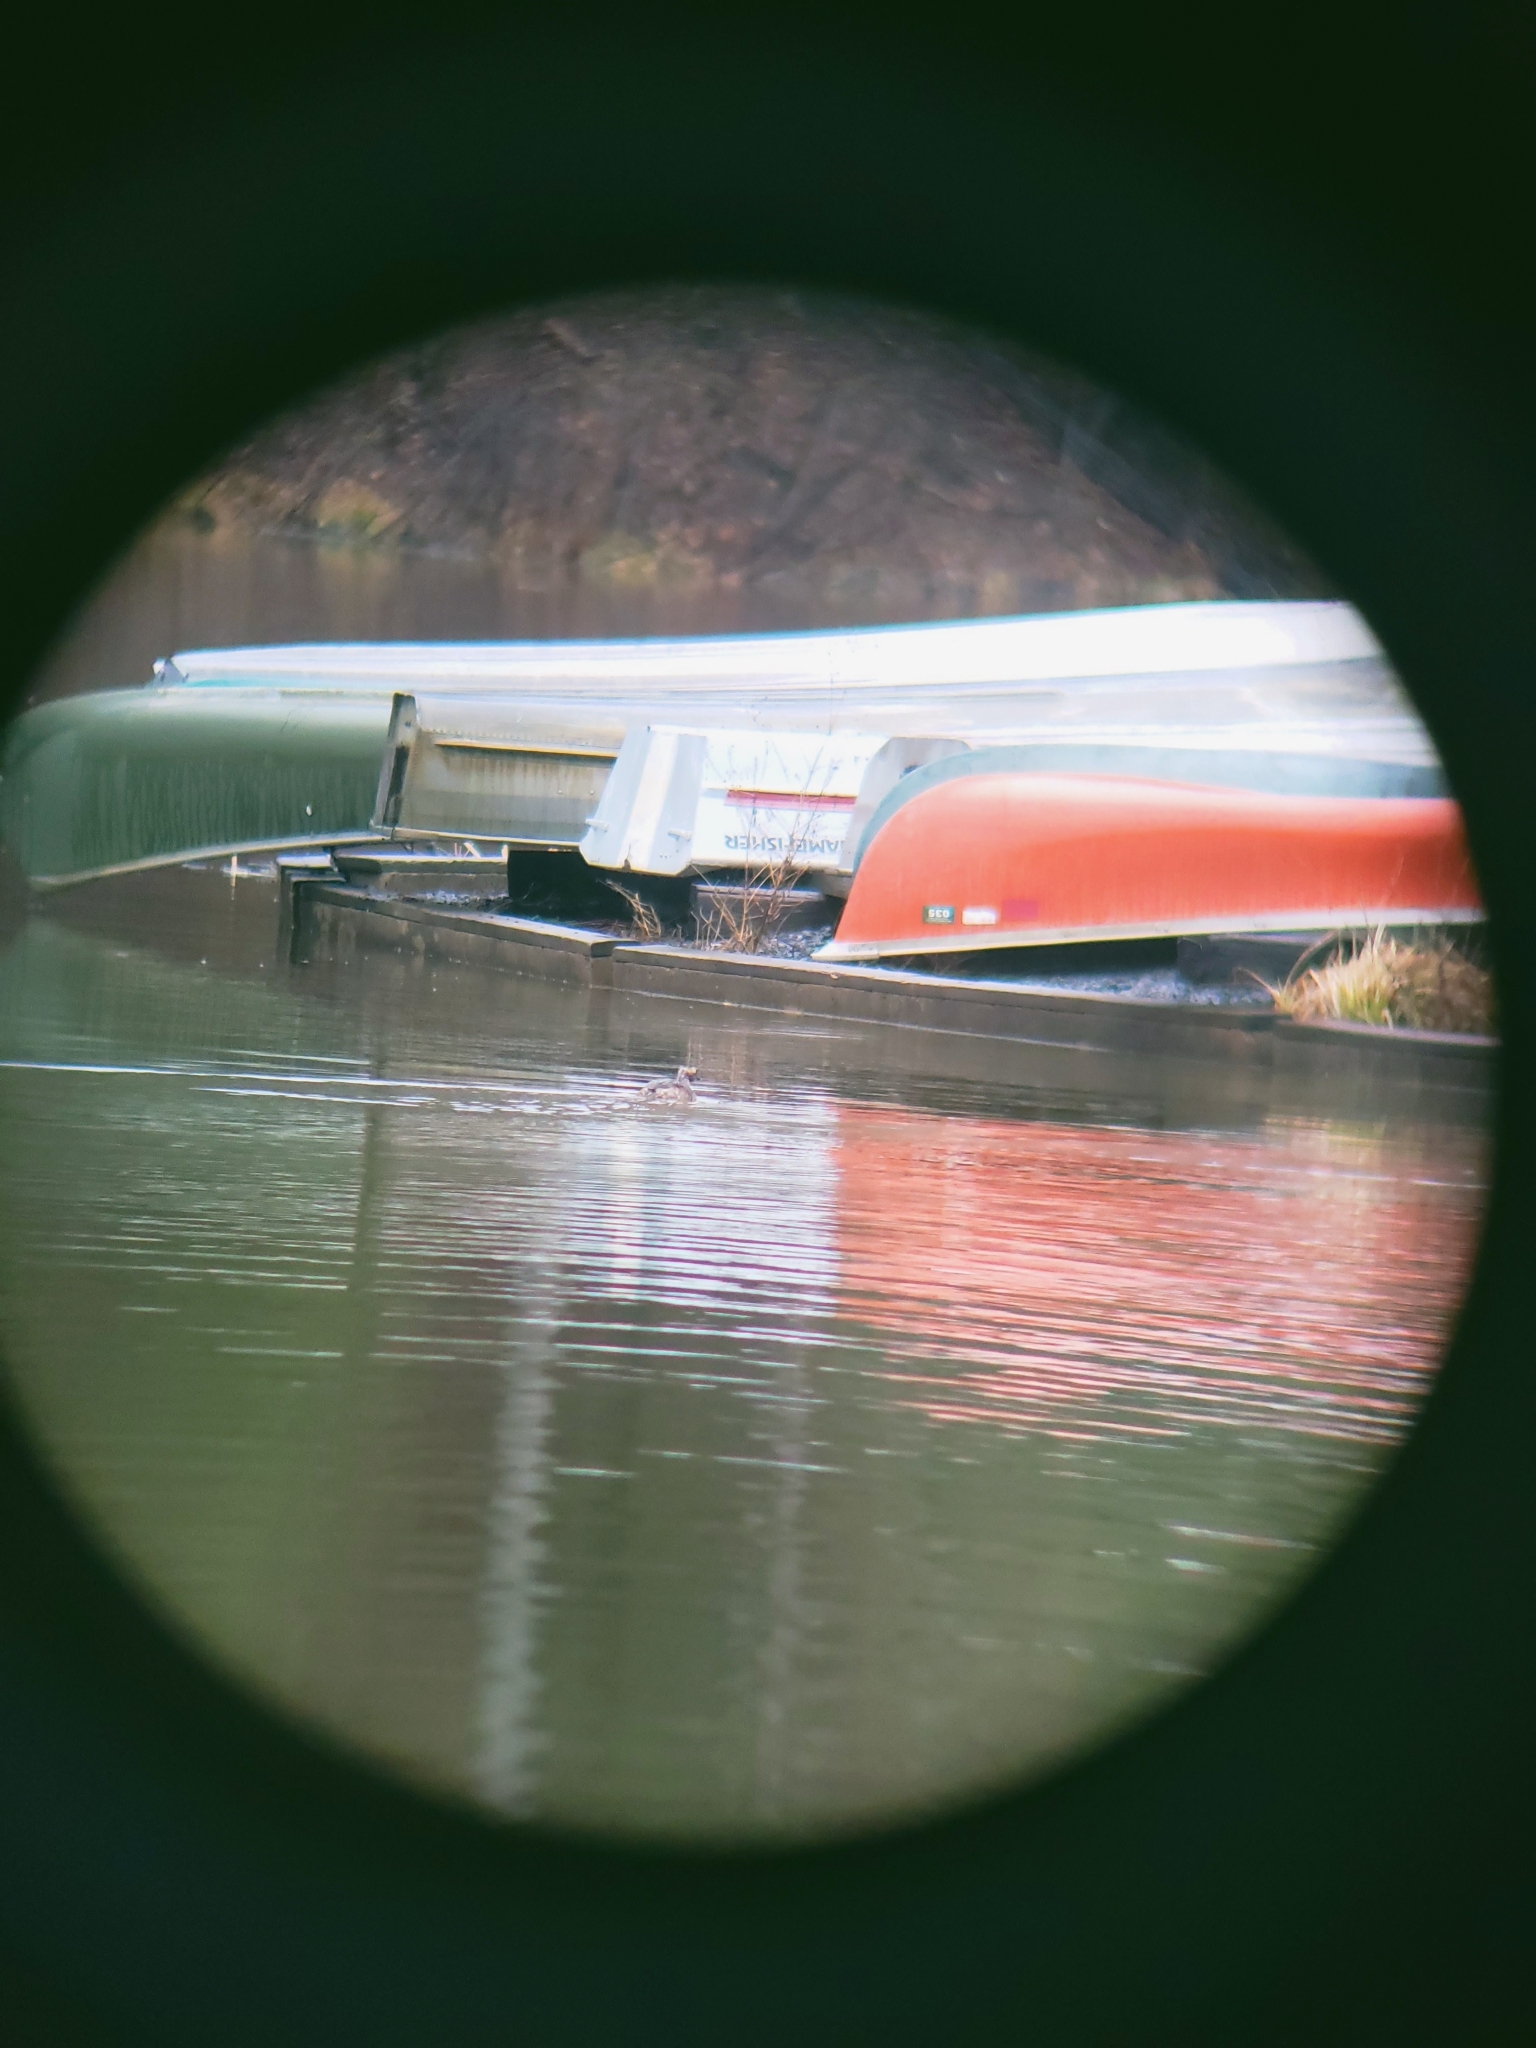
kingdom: Animalia
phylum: Chordata
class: Aves
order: Podicipediformes
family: Podicipedidae
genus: Podiceps
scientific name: Podiceps auritus
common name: Horned grebe
